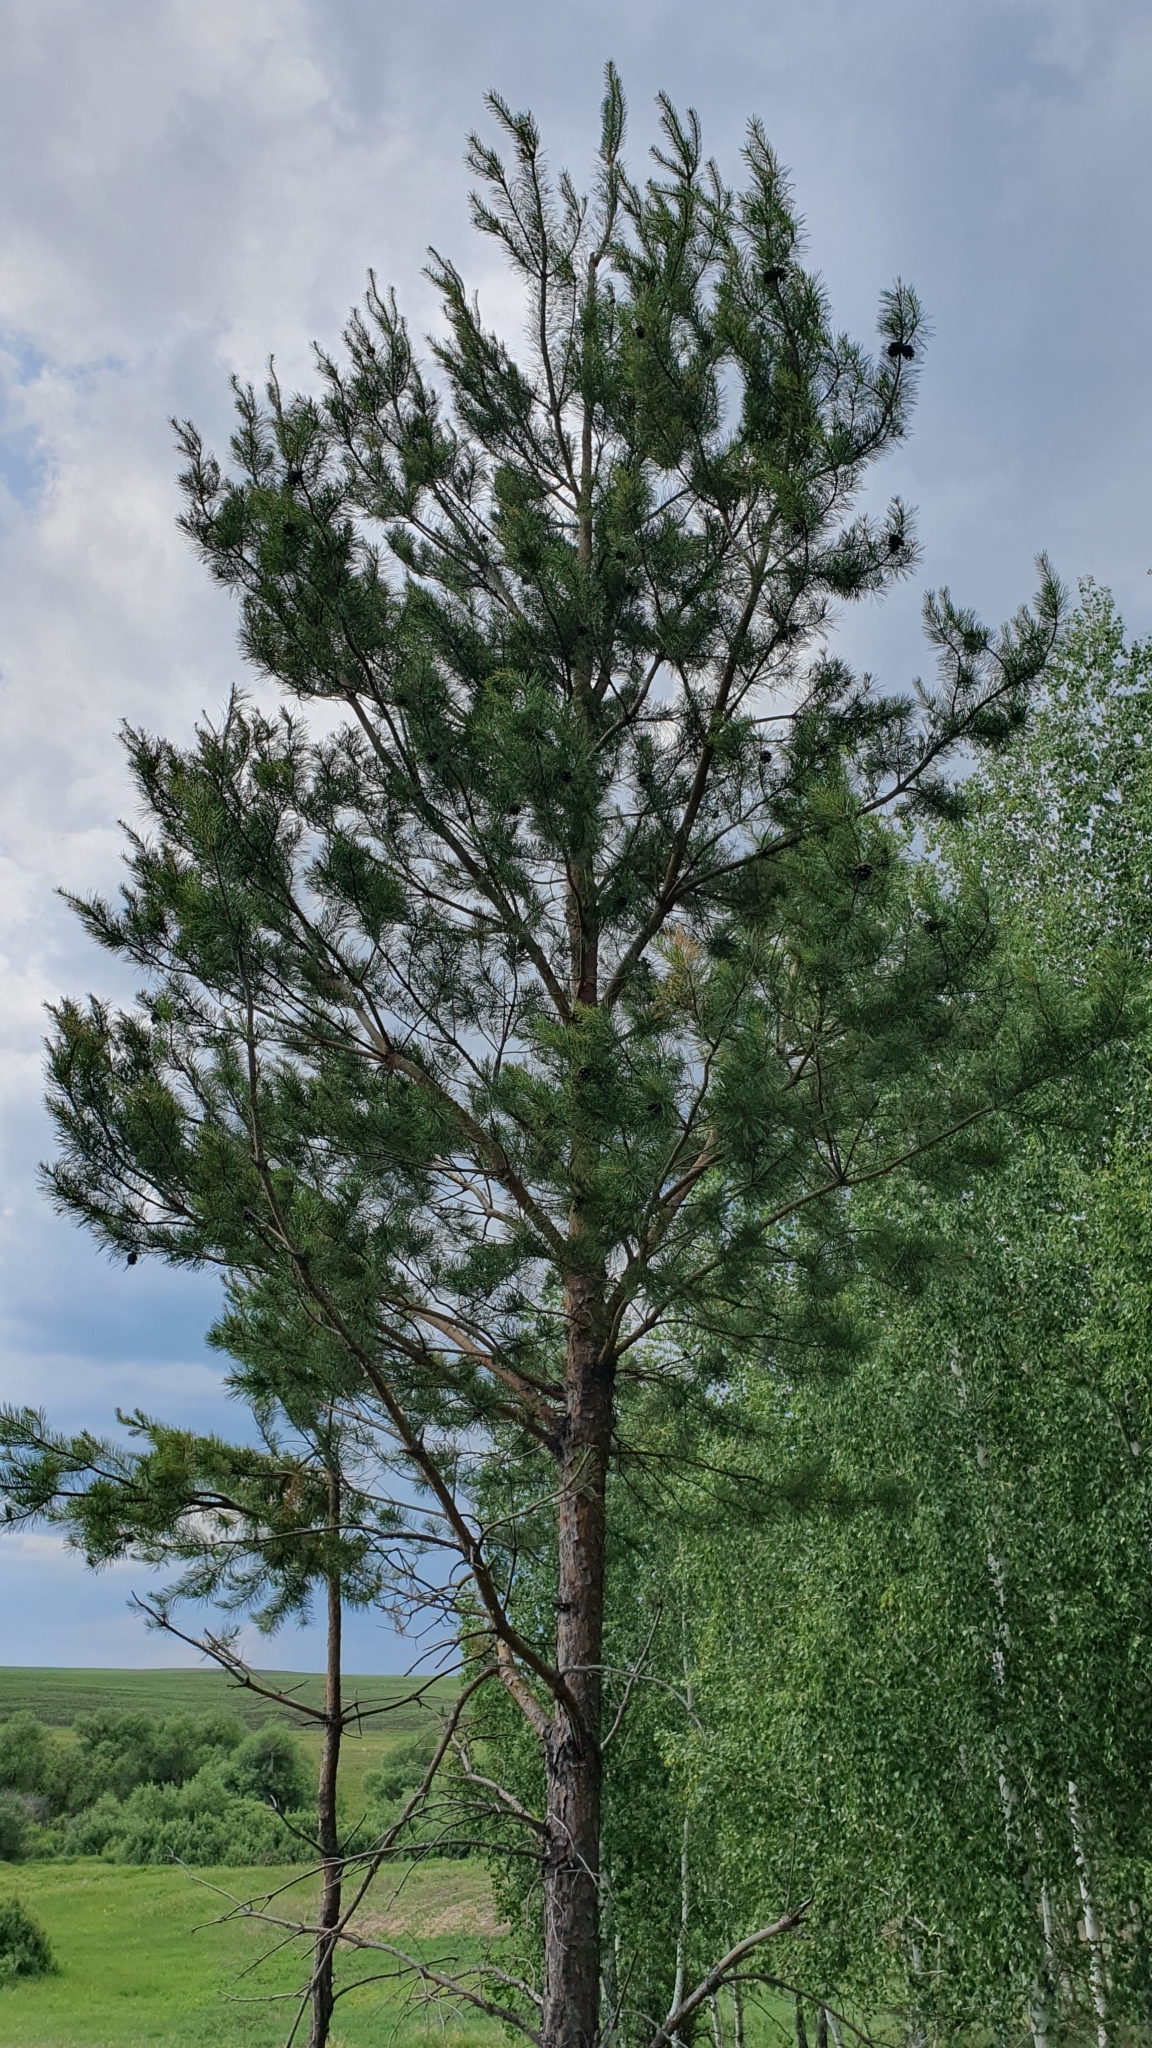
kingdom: Plantae
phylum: Tracheophyta
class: Pinopsida
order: Pinales
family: Pinaceae
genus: Pinus
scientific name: Pinus sylvestris
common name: Scots pine
